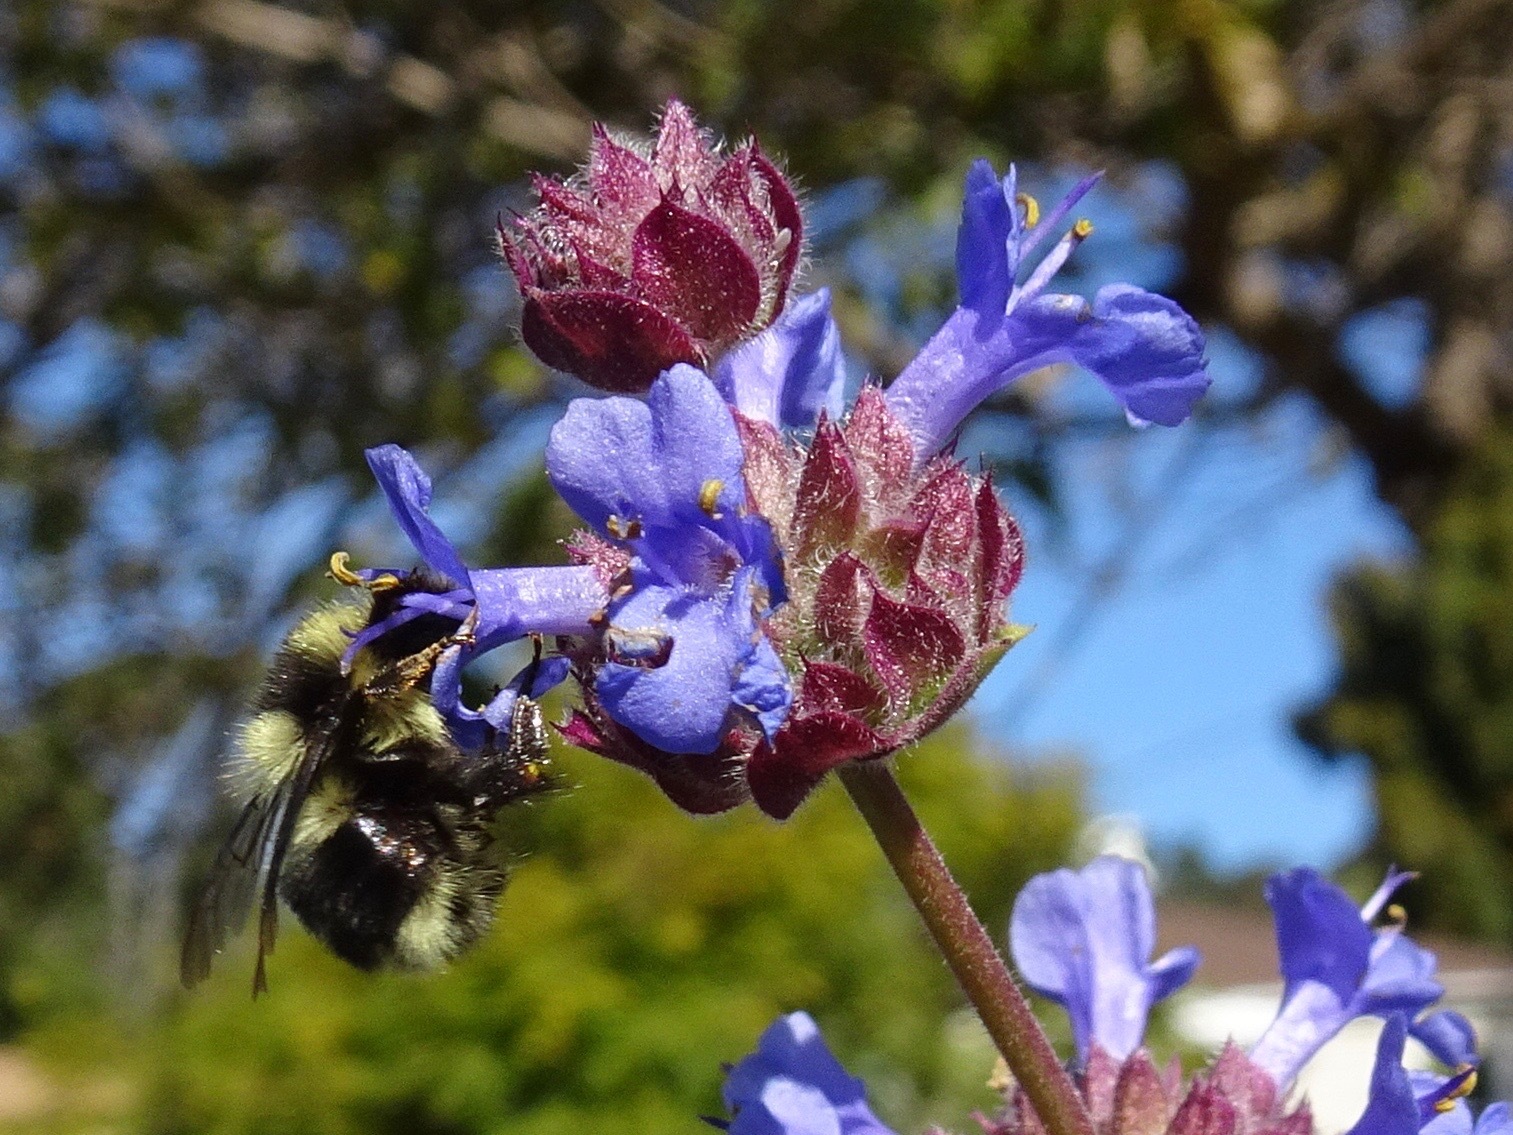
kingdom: Animalia
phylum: Arthropoda
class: Insecta
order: Hymenoptera
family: Apidae
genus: Bombus
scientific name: Bombus melanopygus
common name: Black tail bumble bee
